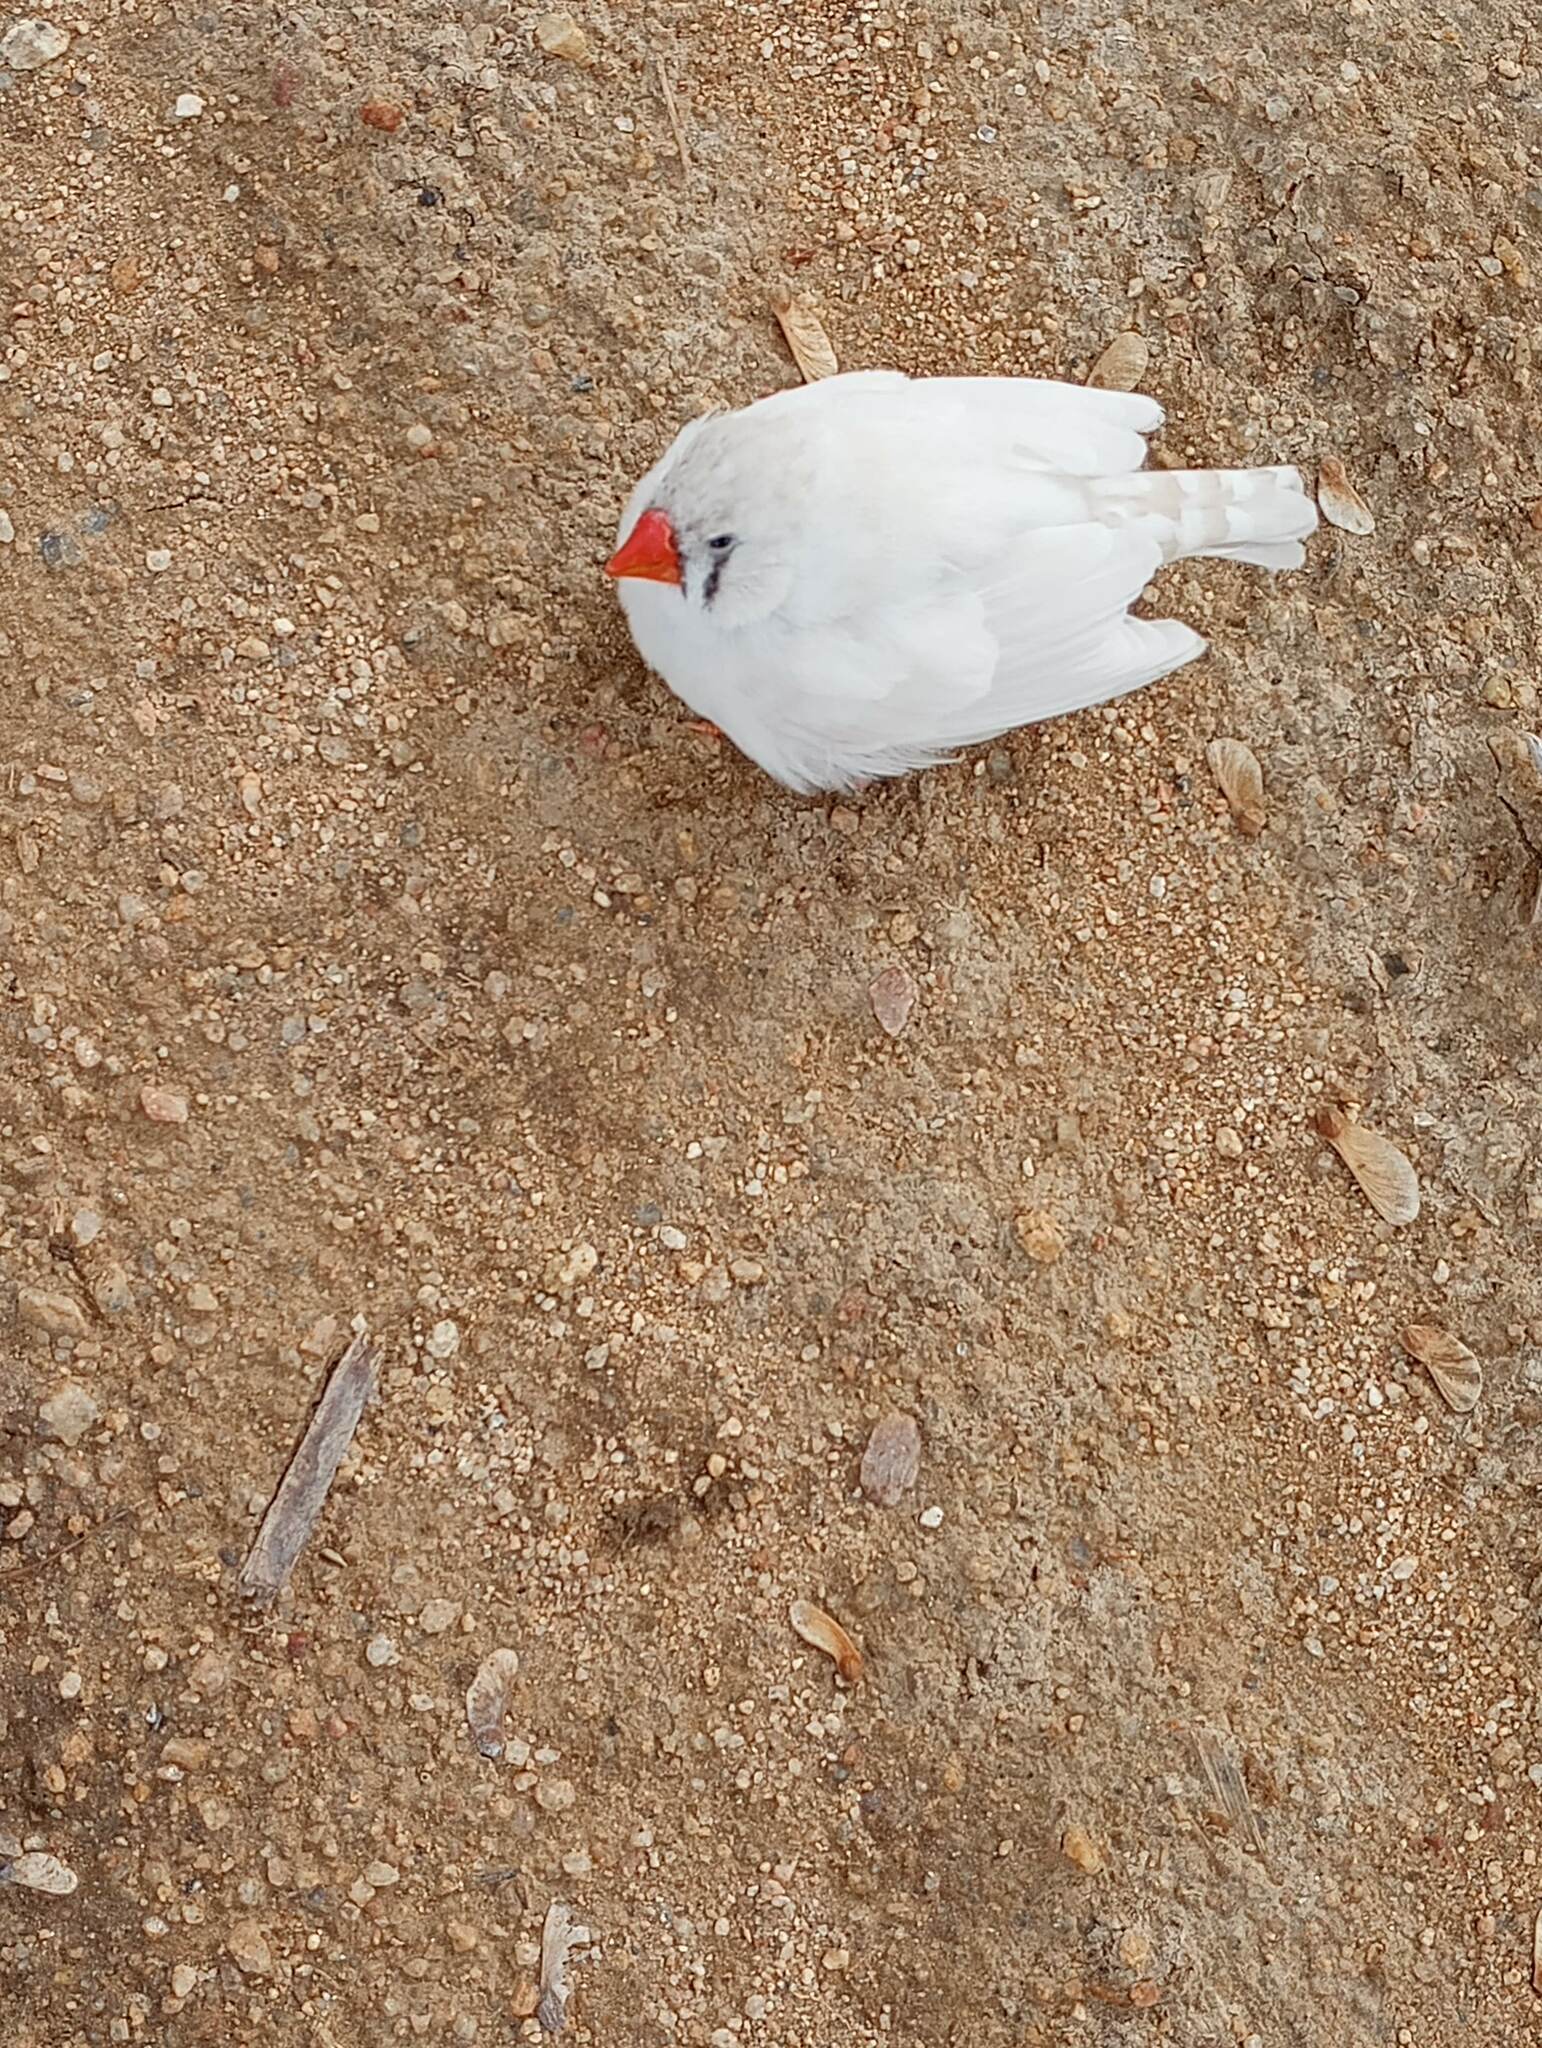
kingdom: Animalia
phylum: Chordata
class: Aves
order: Passeriformes
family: Estrildidae
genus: Taeniopygia
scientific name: Taeniopygia guttata
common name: Zebra finch
